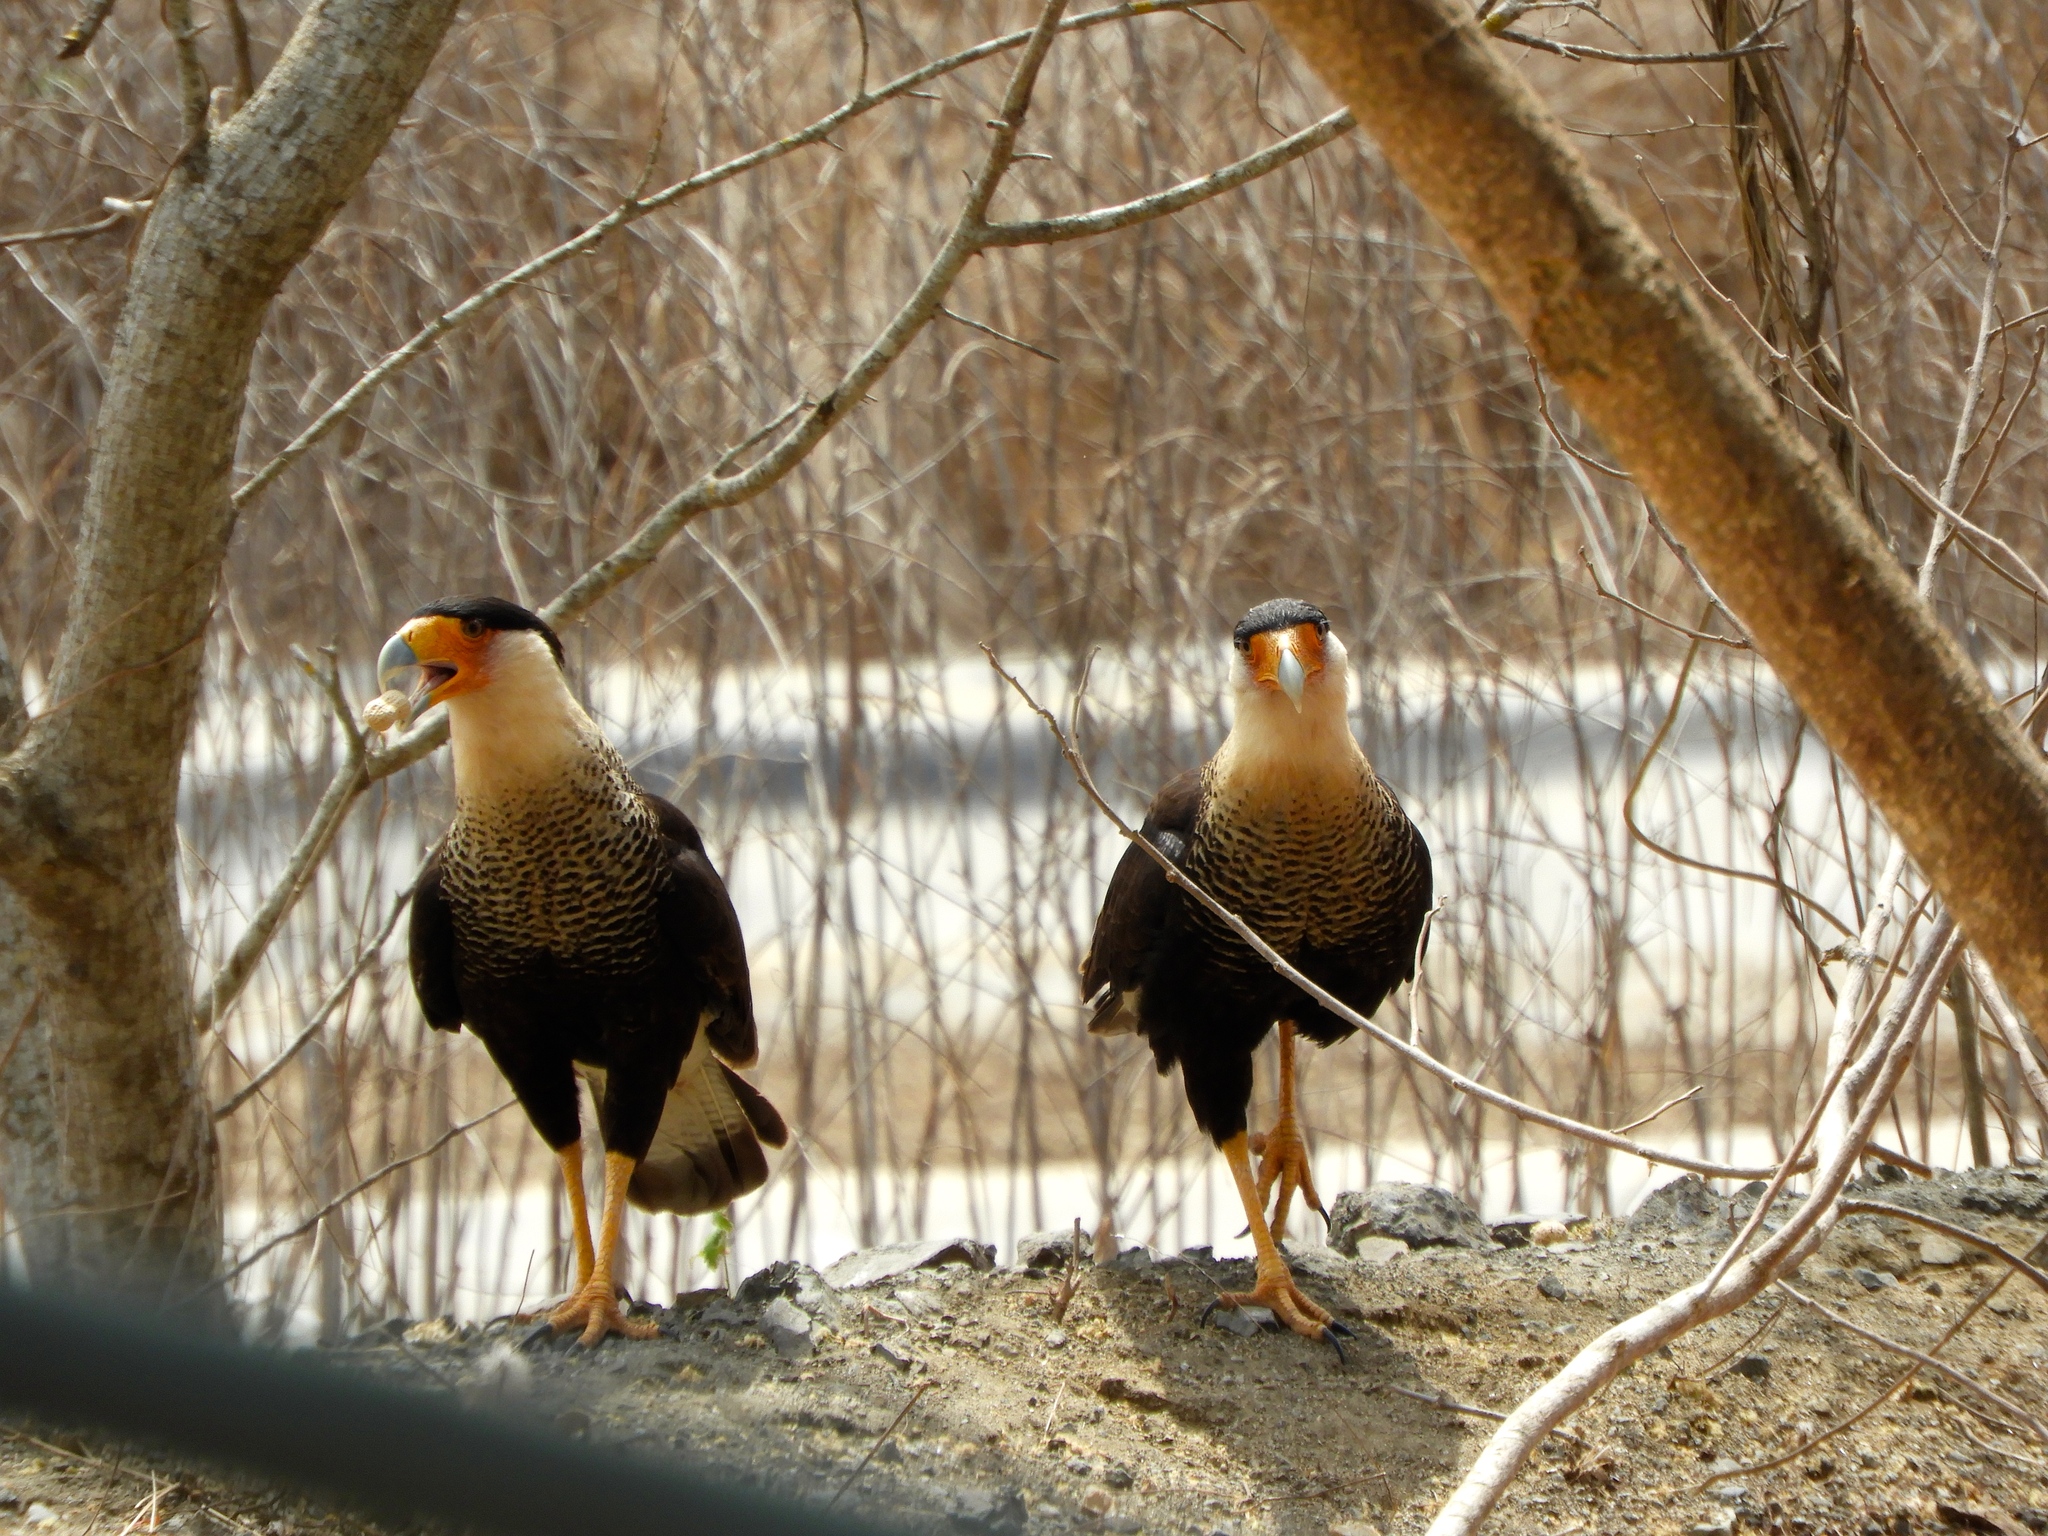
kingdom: Animalia
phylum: Chordata
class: Aves
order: Falconiformes
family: Falconidae
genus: Caracara
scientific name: Caracara plancus
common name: Southern caracara
